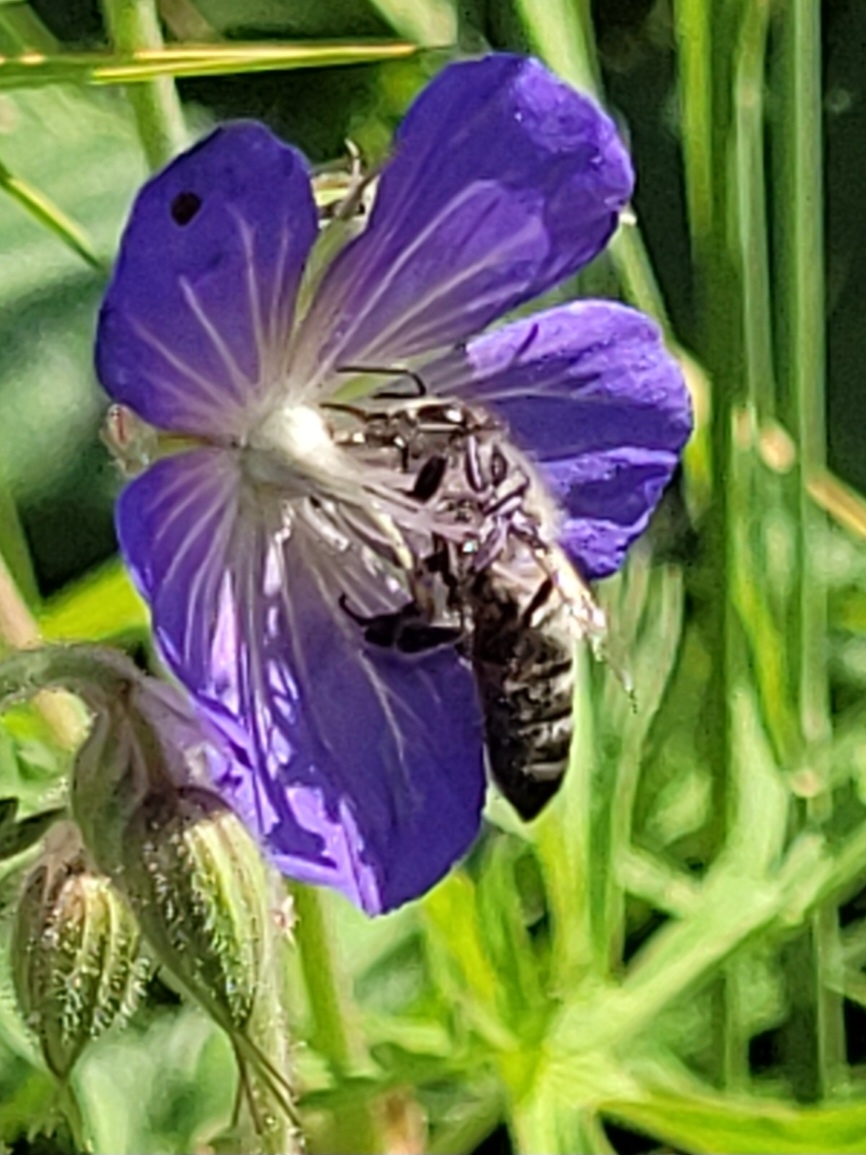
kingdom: Animalia
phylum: Arthropoda
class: Insecta
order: Hymenoptera
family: Apidae
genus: Apis
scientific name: Apis mellifera
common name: Honey bee
